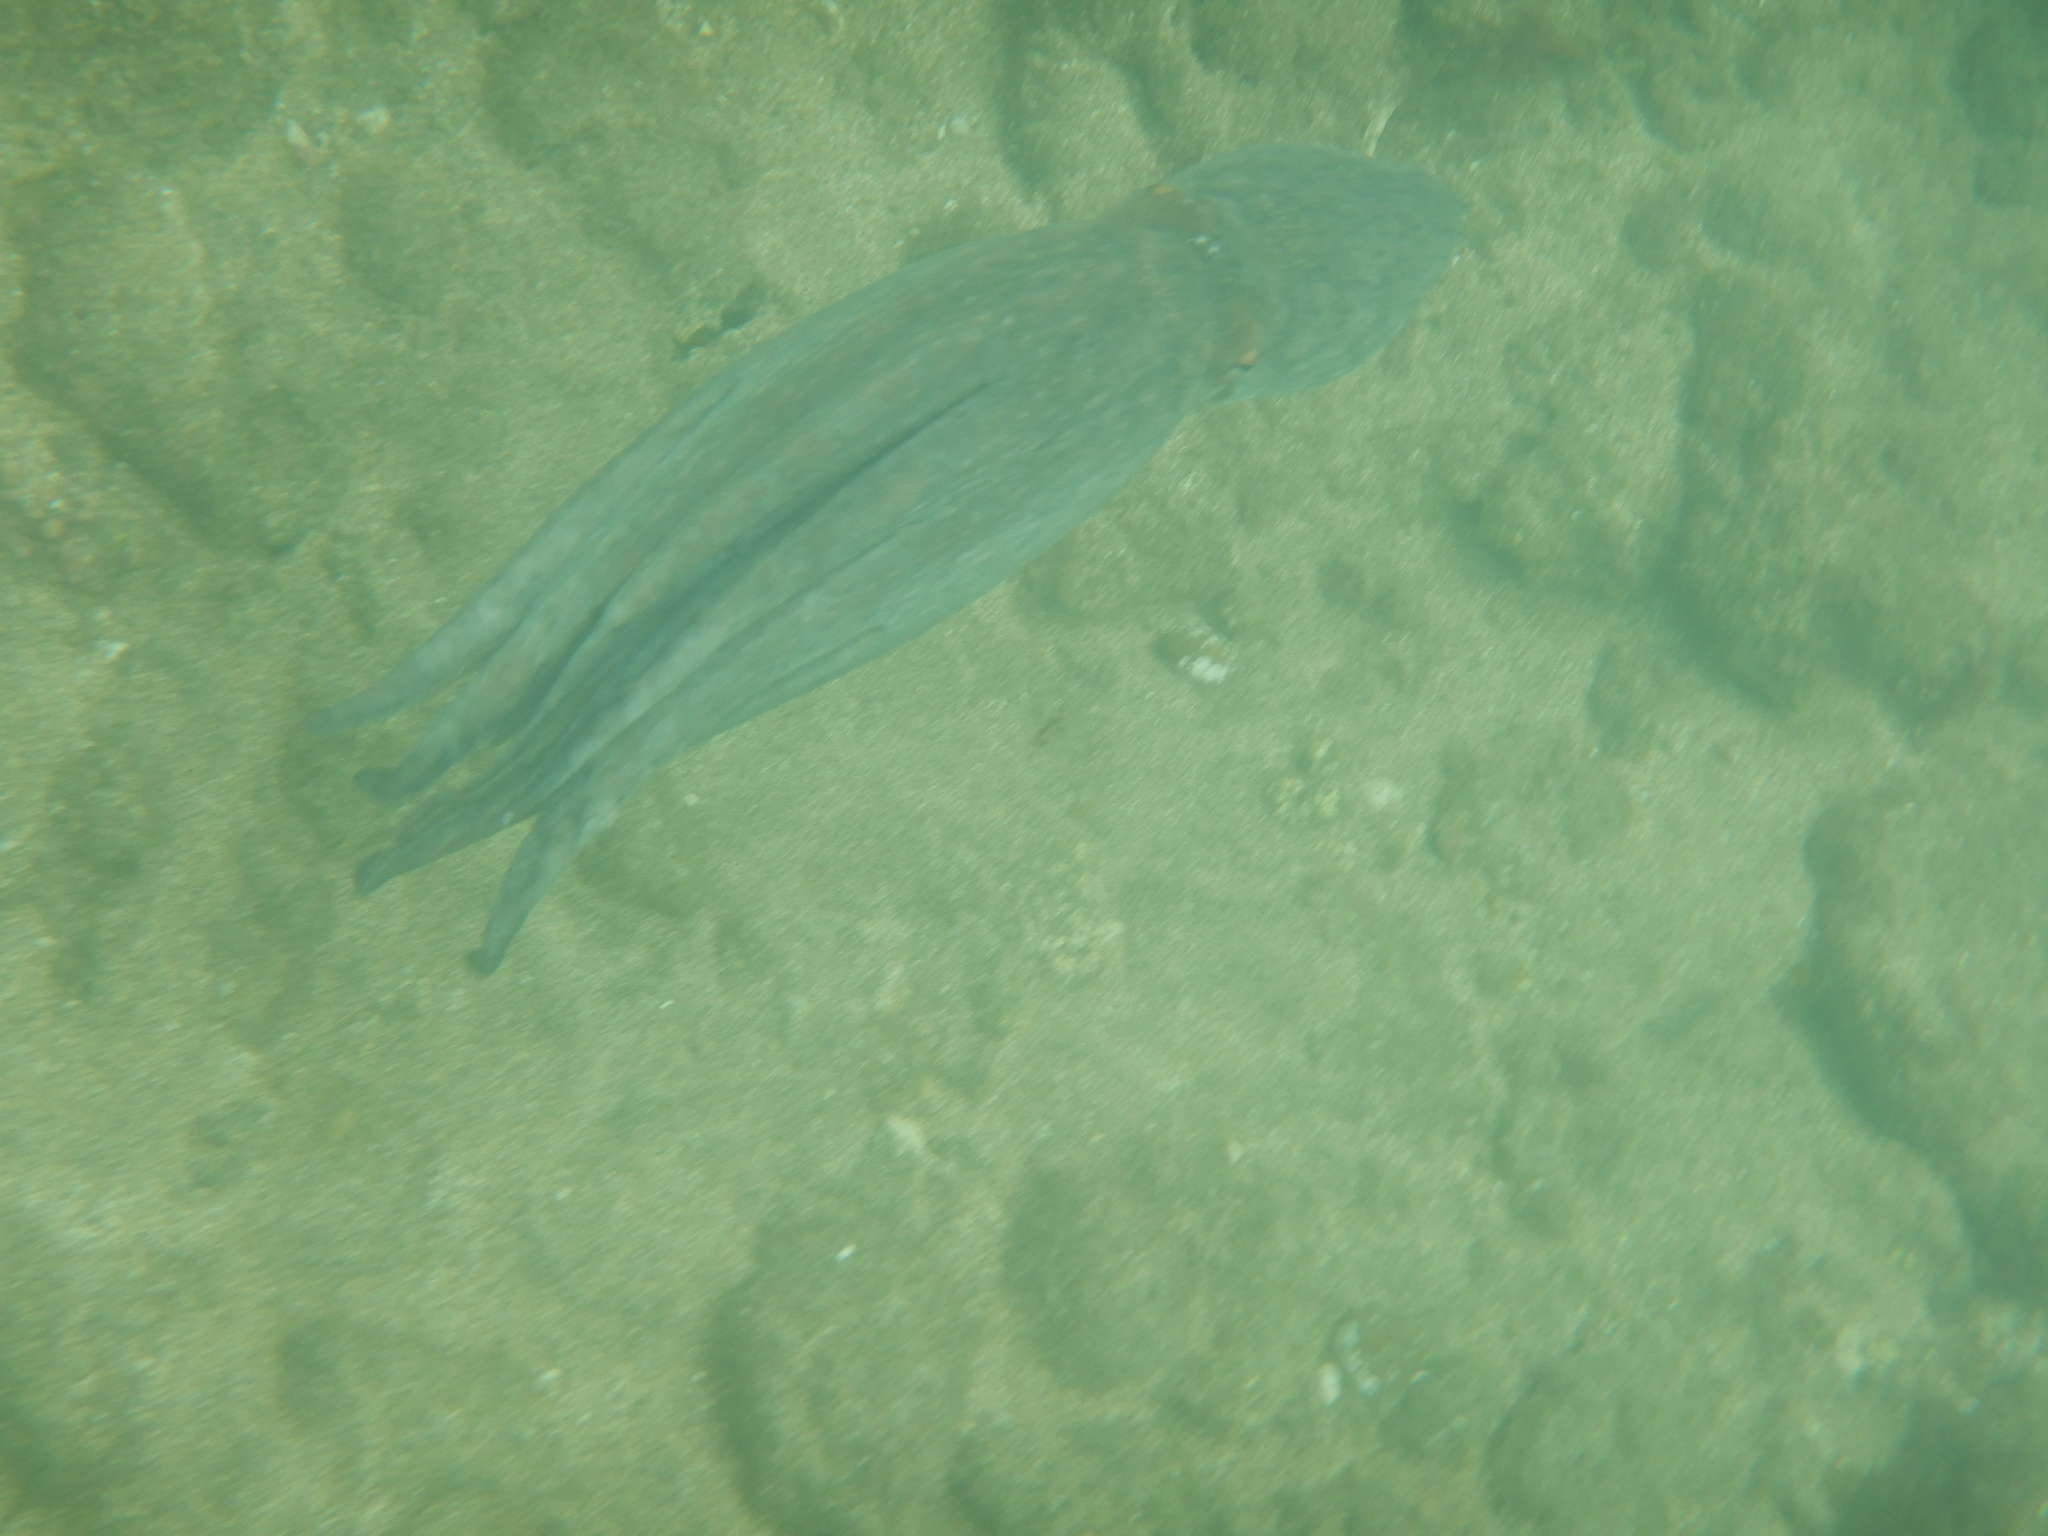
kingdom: Animalia
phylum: Mollusca
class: Cephalopoda
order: Octopoda
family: Octopodidae
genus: Octopus
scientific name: Octopus vulgaris
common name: Common octopus
